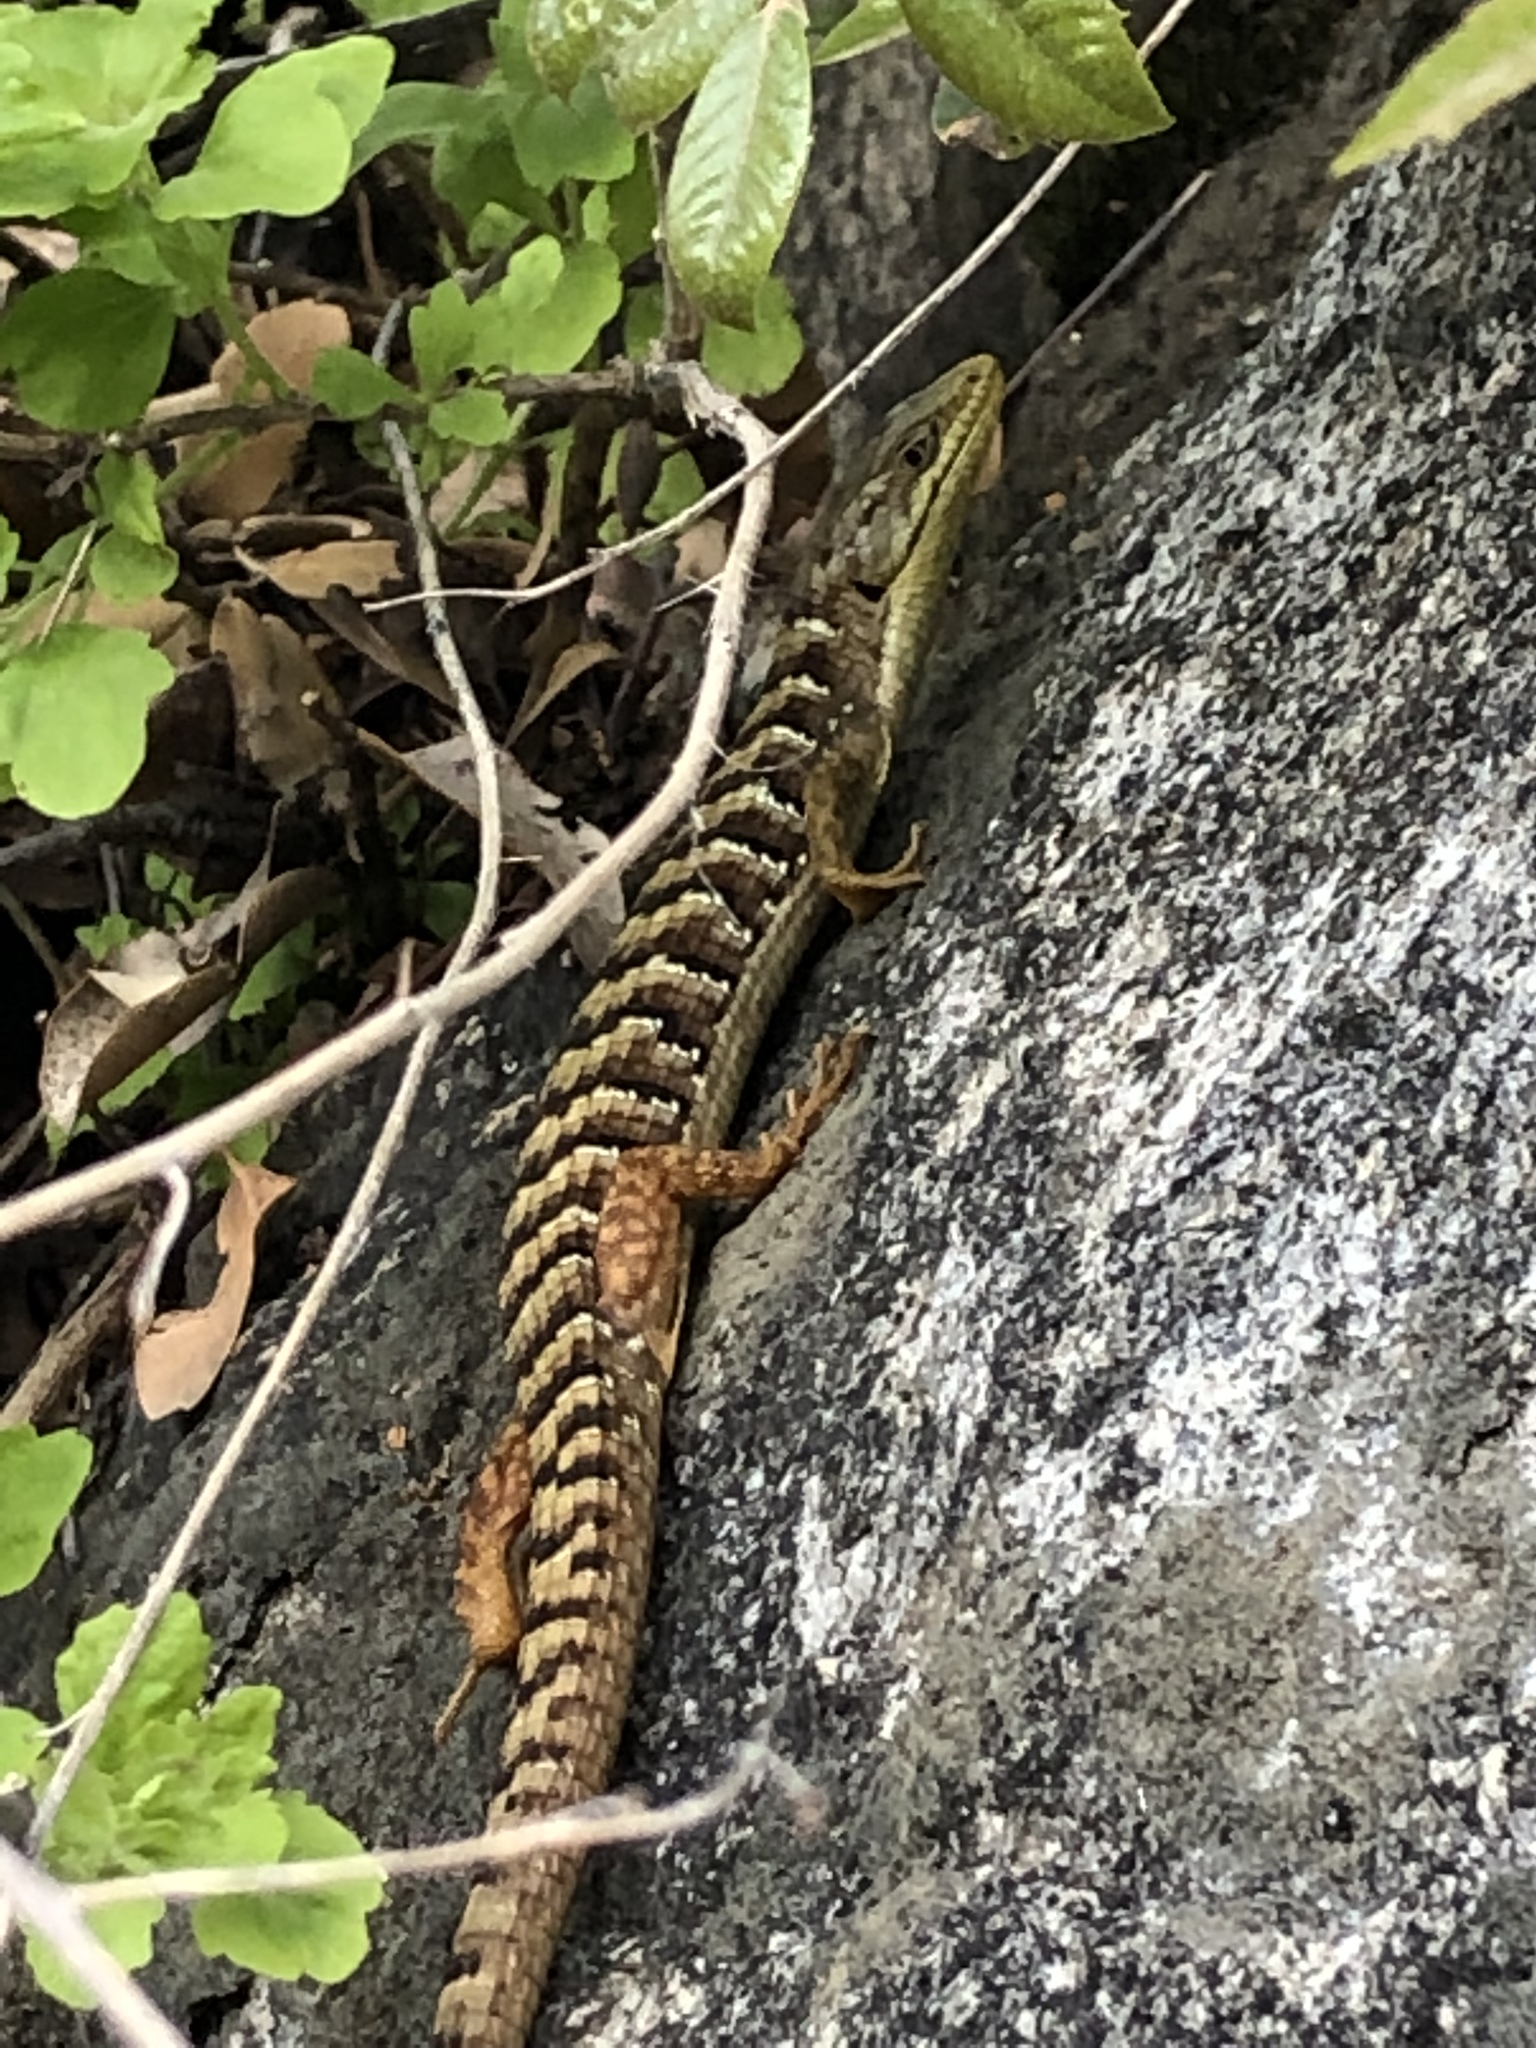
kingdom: Animalia
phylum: Chordata
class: Squamata
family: Anguidae
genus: Elgaria
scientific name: Elgaria multicarinata
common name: Southern alligator lizard
